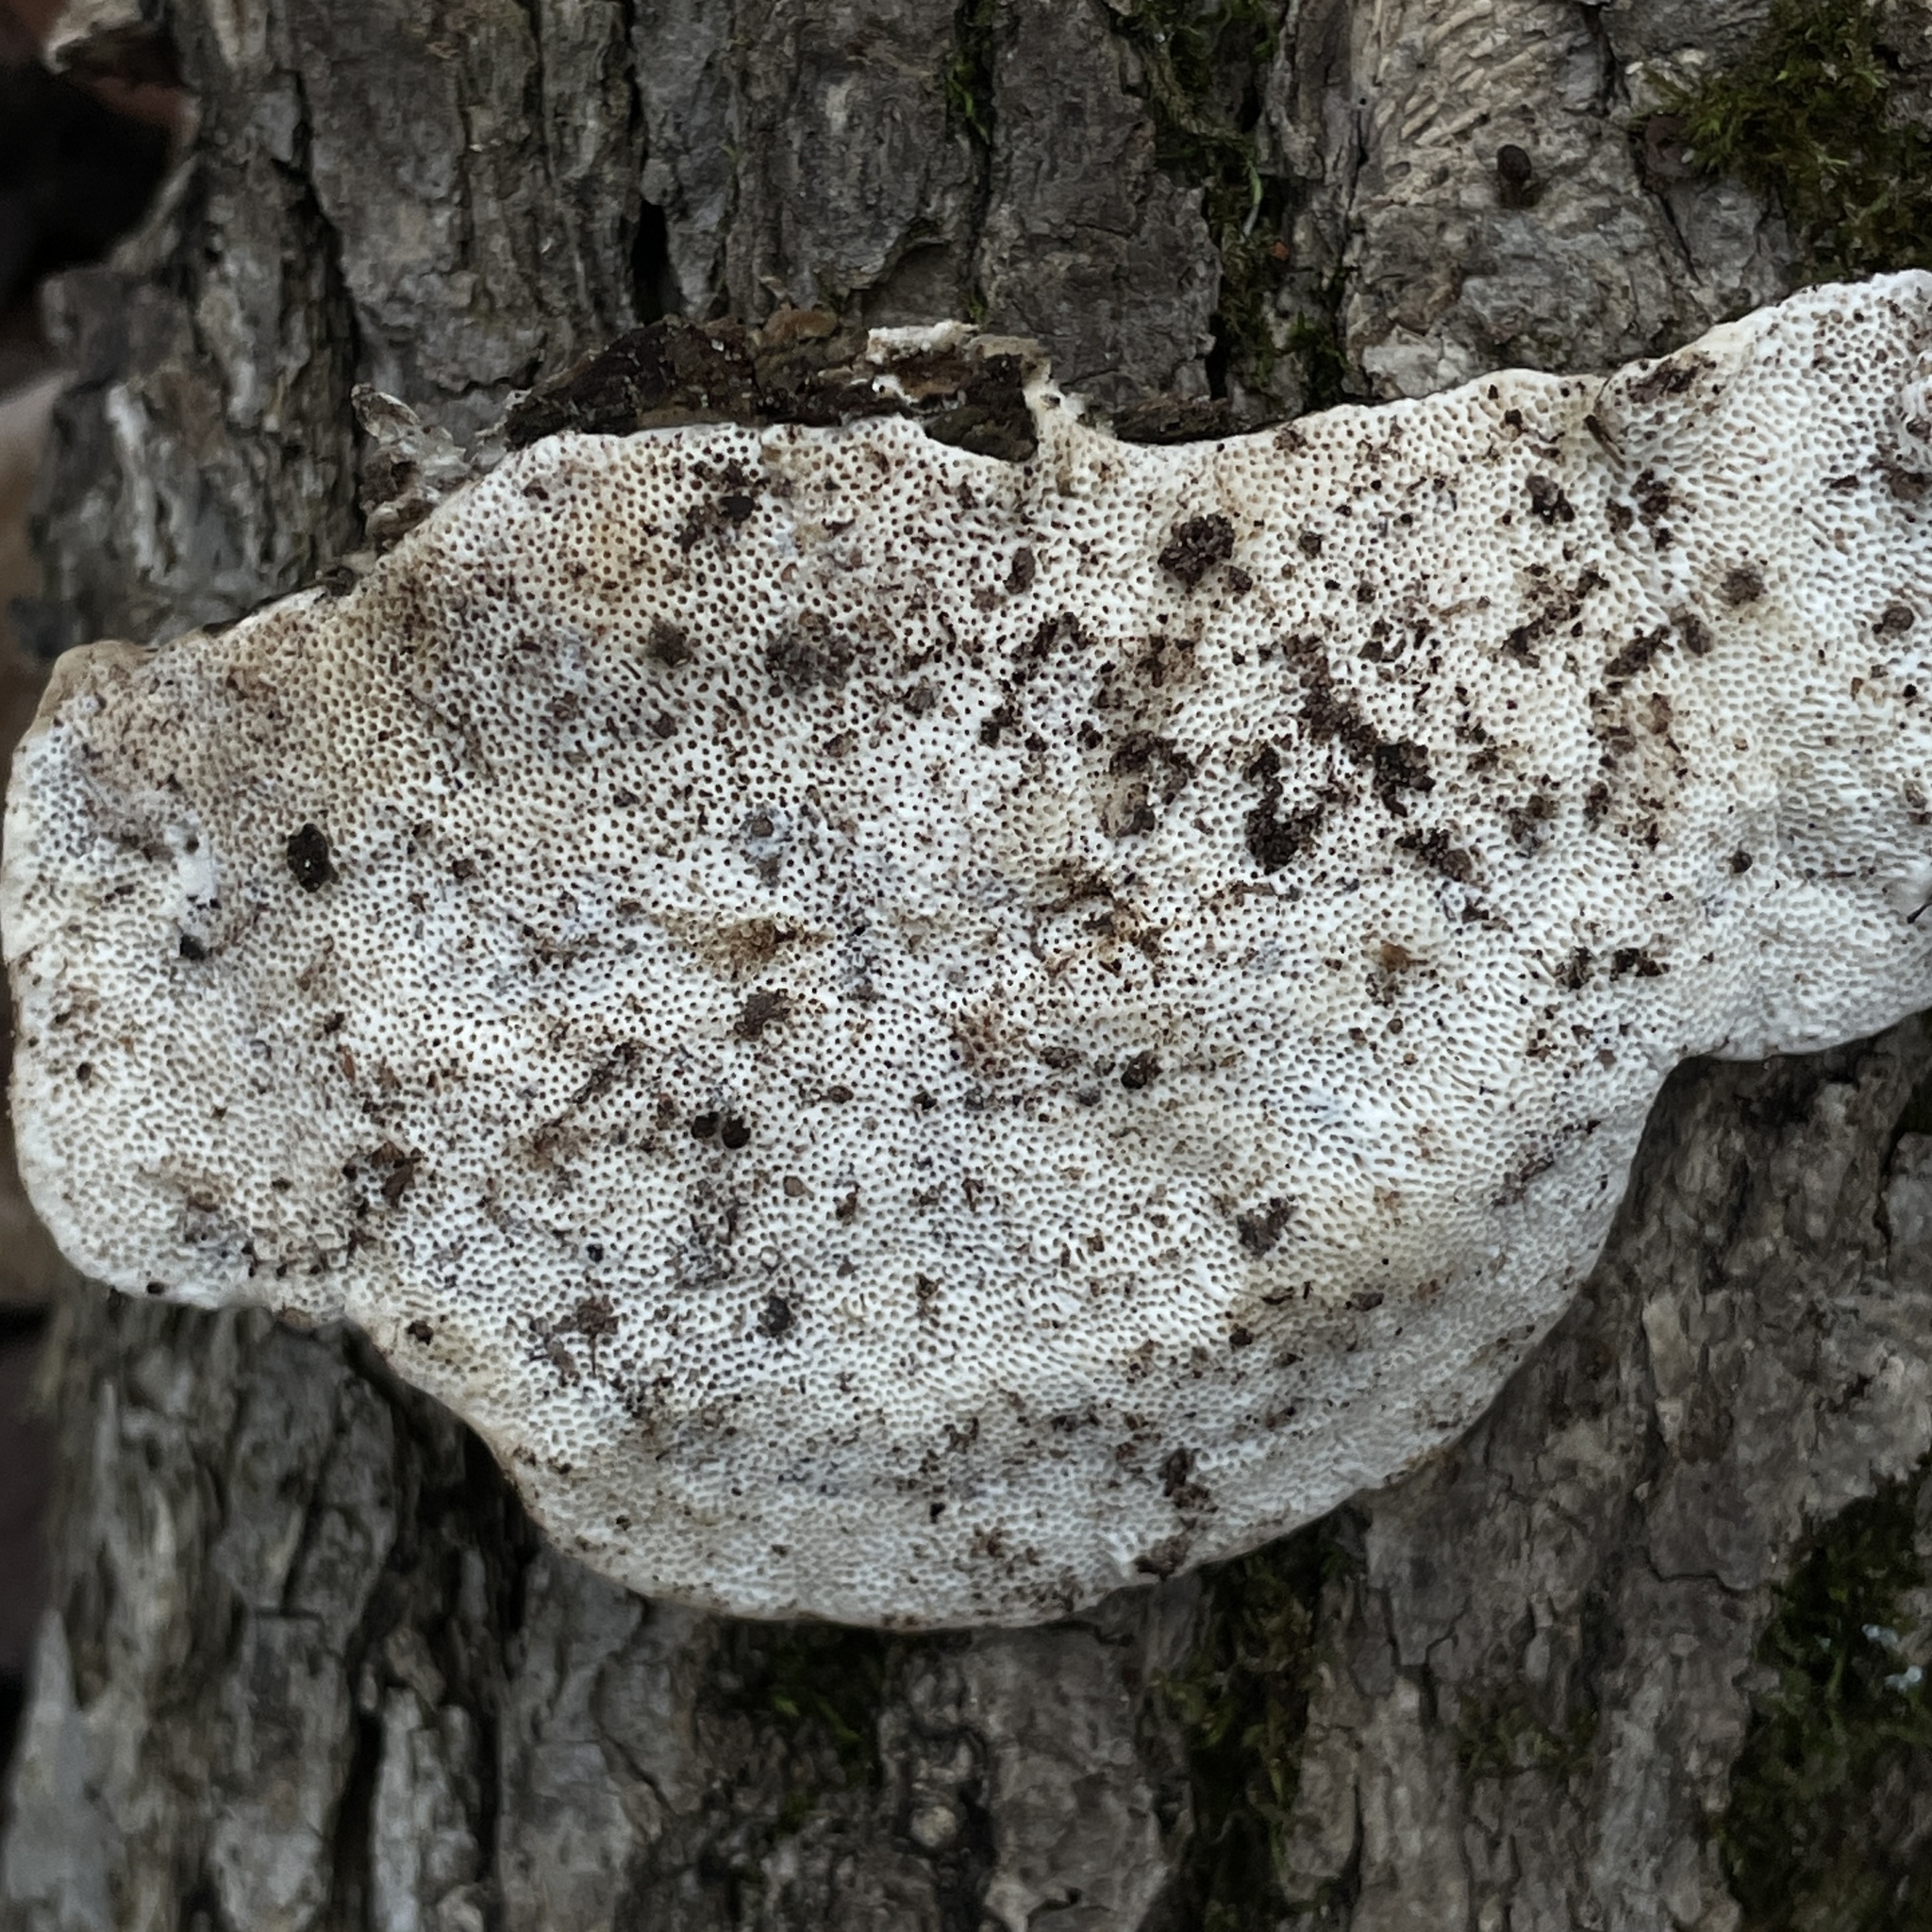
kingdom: Fungi
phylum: Basidiomycota
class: Agaricomycetes
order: Polyporales
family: Polyporaceae
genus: Trametes
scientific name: Trametes lactinea
